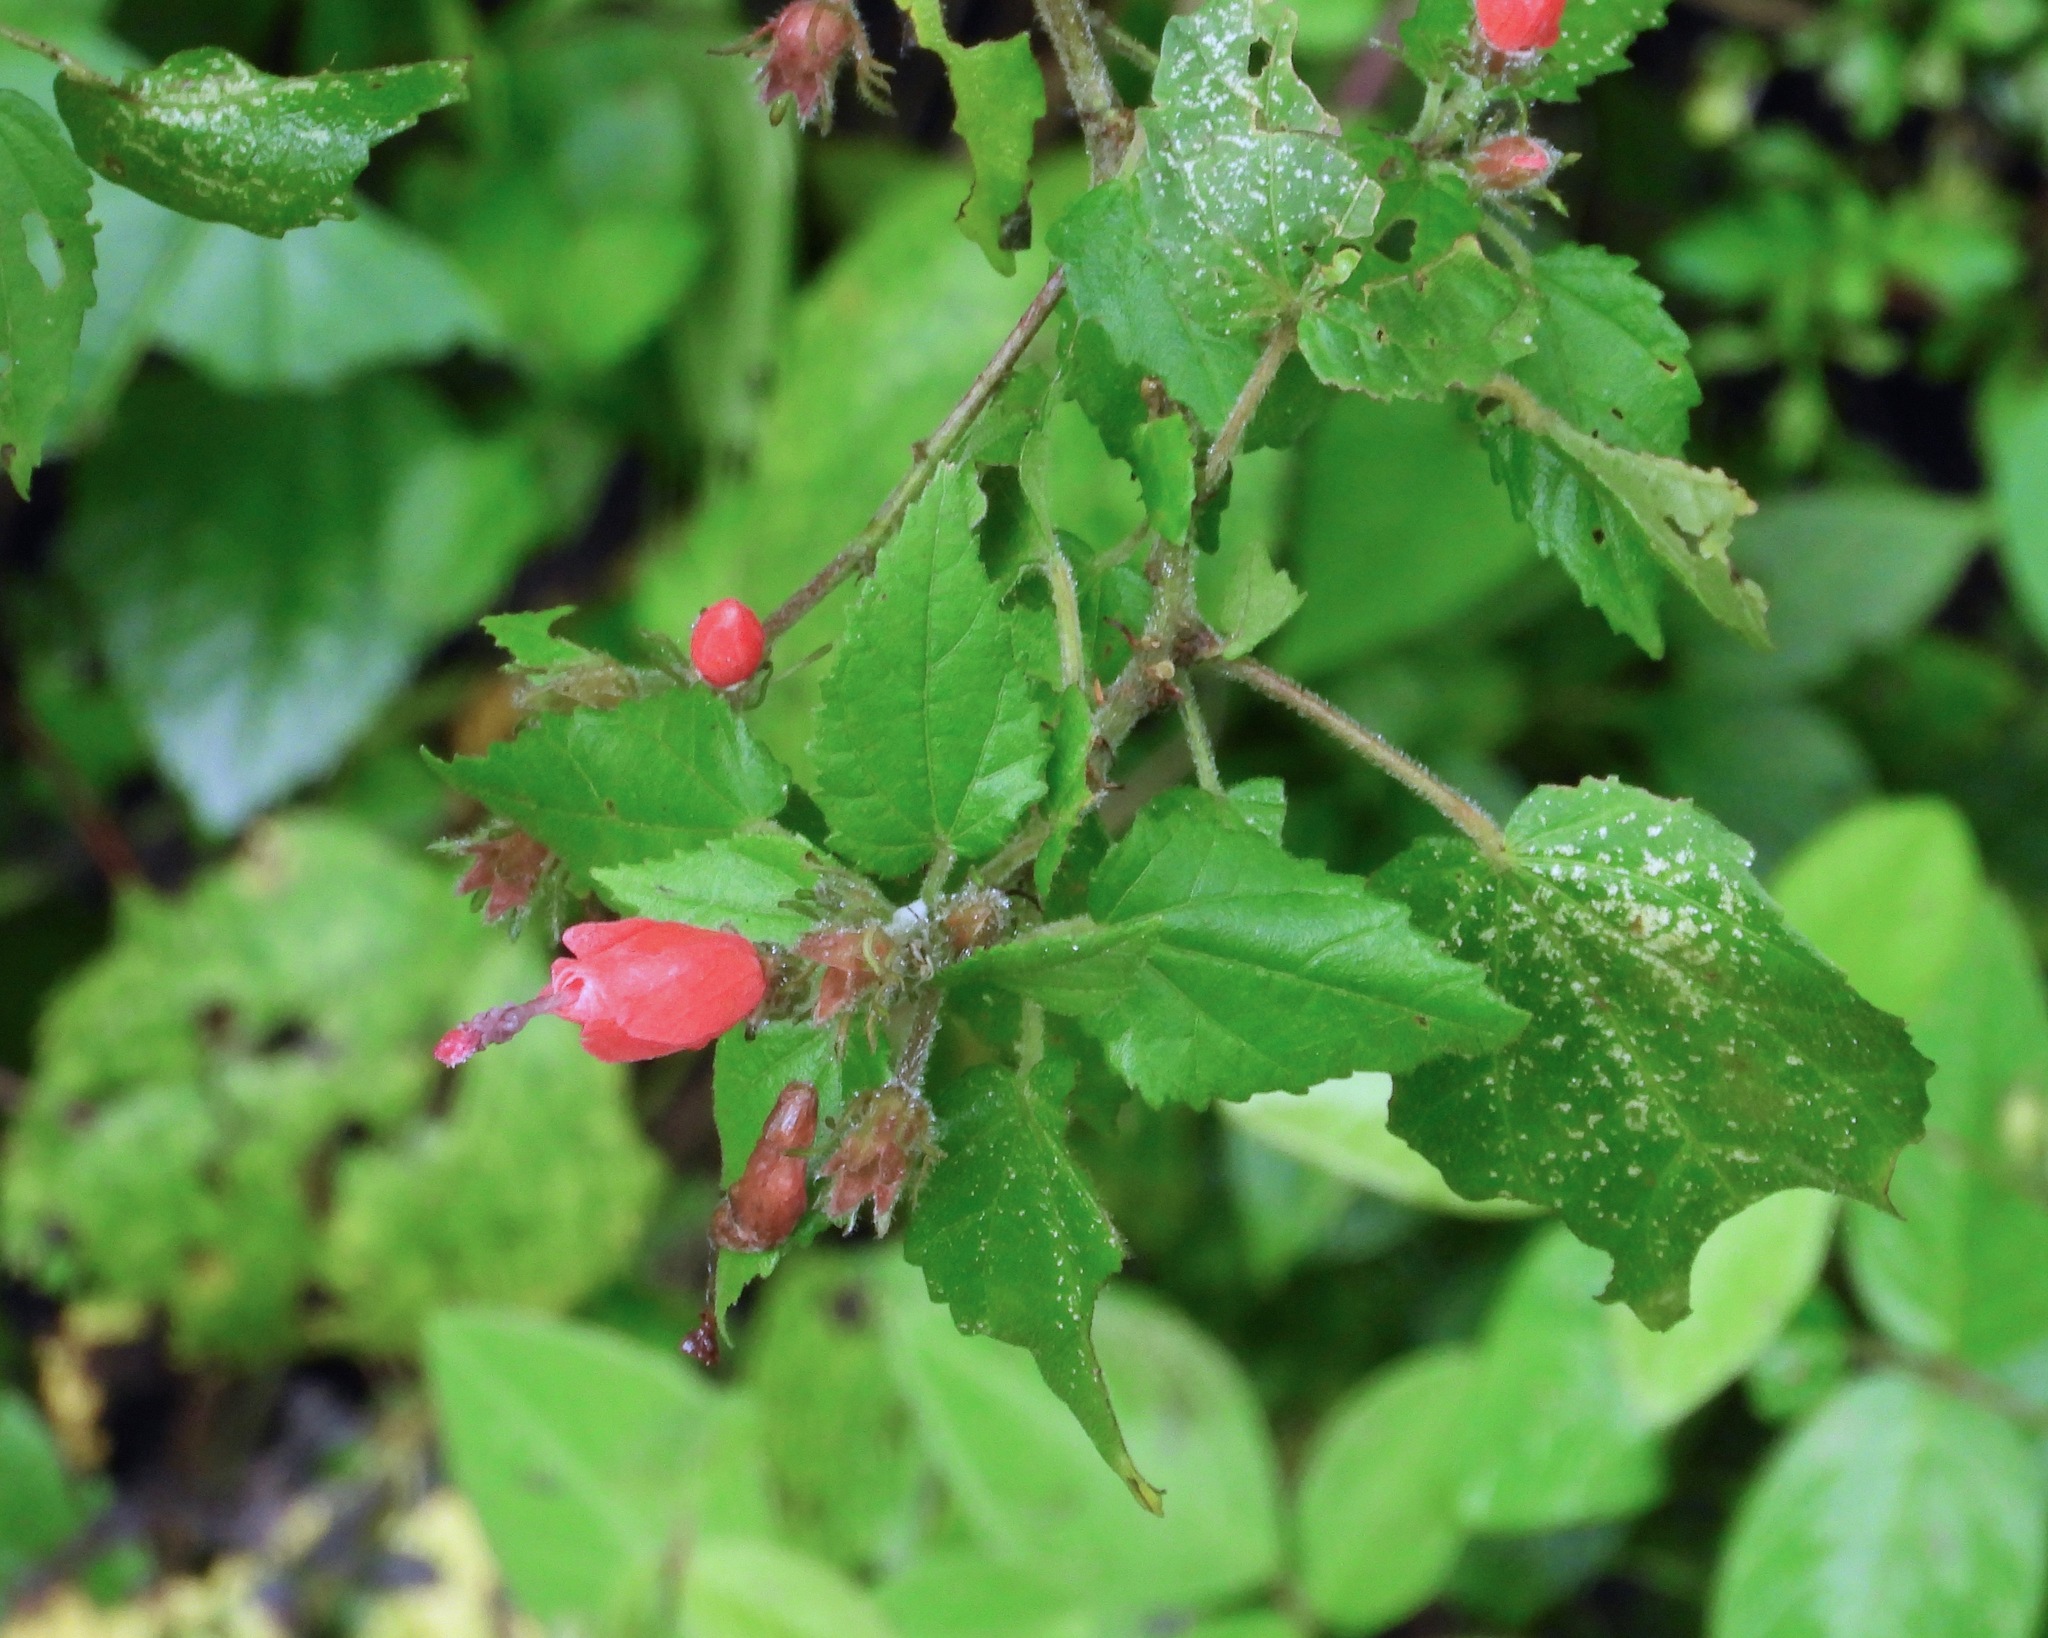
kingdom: Plantae
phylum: Tracheophyta
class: Magnoliopsida
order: Malvales
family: Malvaceae
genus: Malvaviscus
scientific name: Malvaviscus arboreus
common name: Wax mallow
